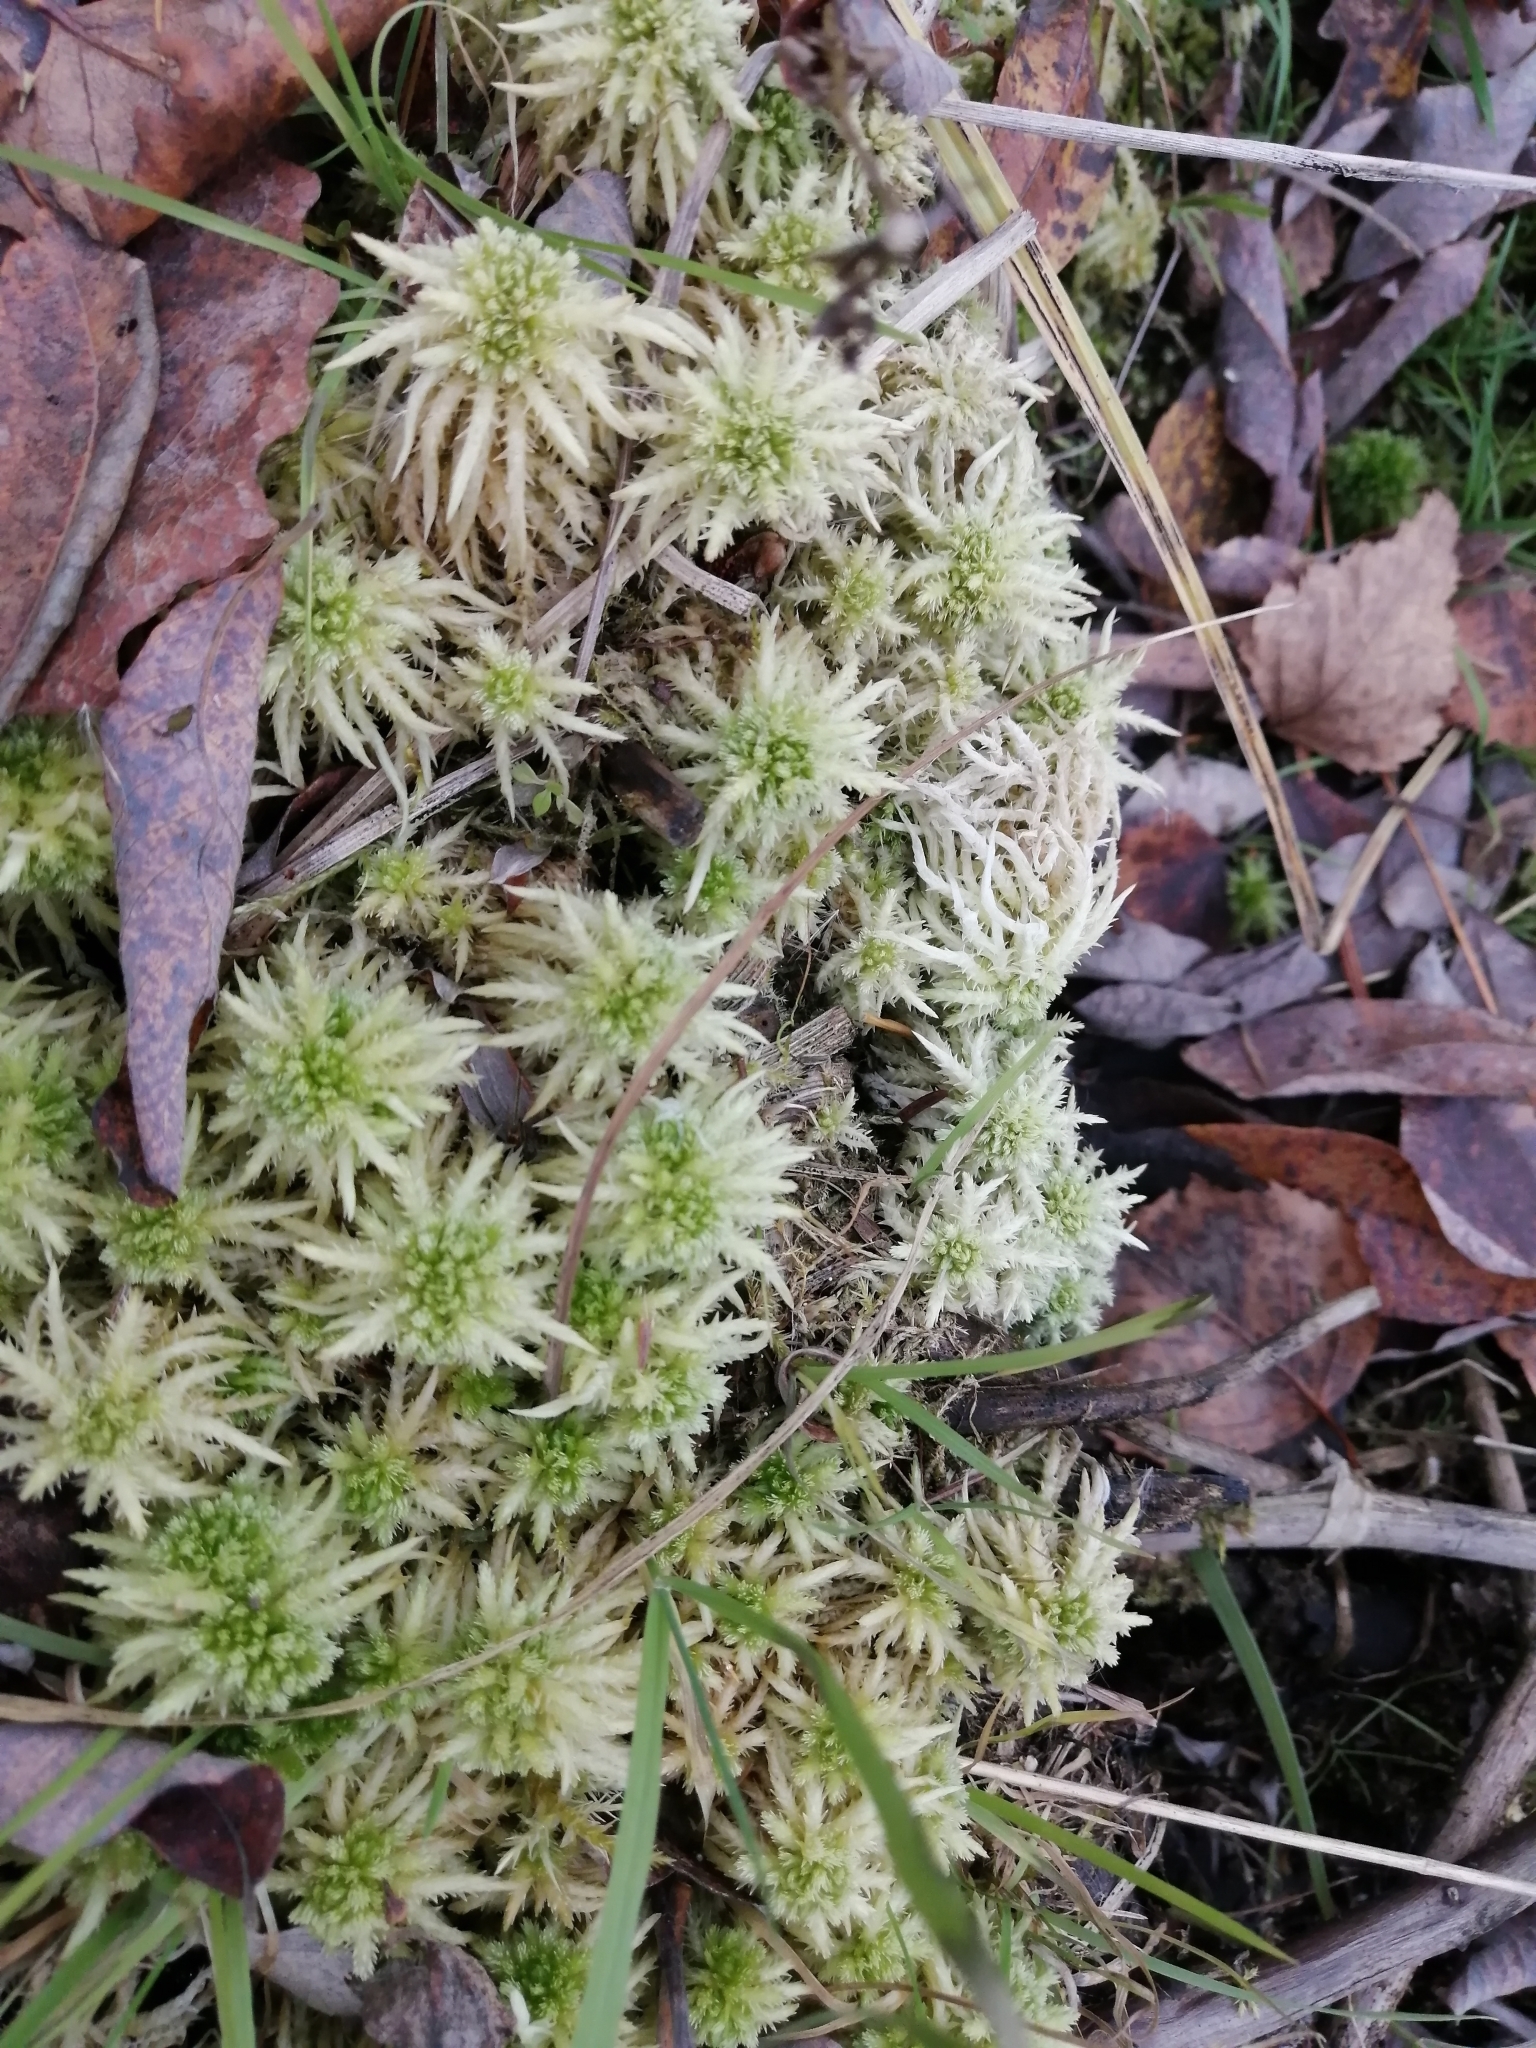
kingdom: Plantae
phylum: Bryophyta
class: Sphagnopsida
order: Sphagnales
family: Sphagnaceae
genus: Sphagnum
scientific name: Sphagnum squarrosum
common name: Shaggy peat moss
